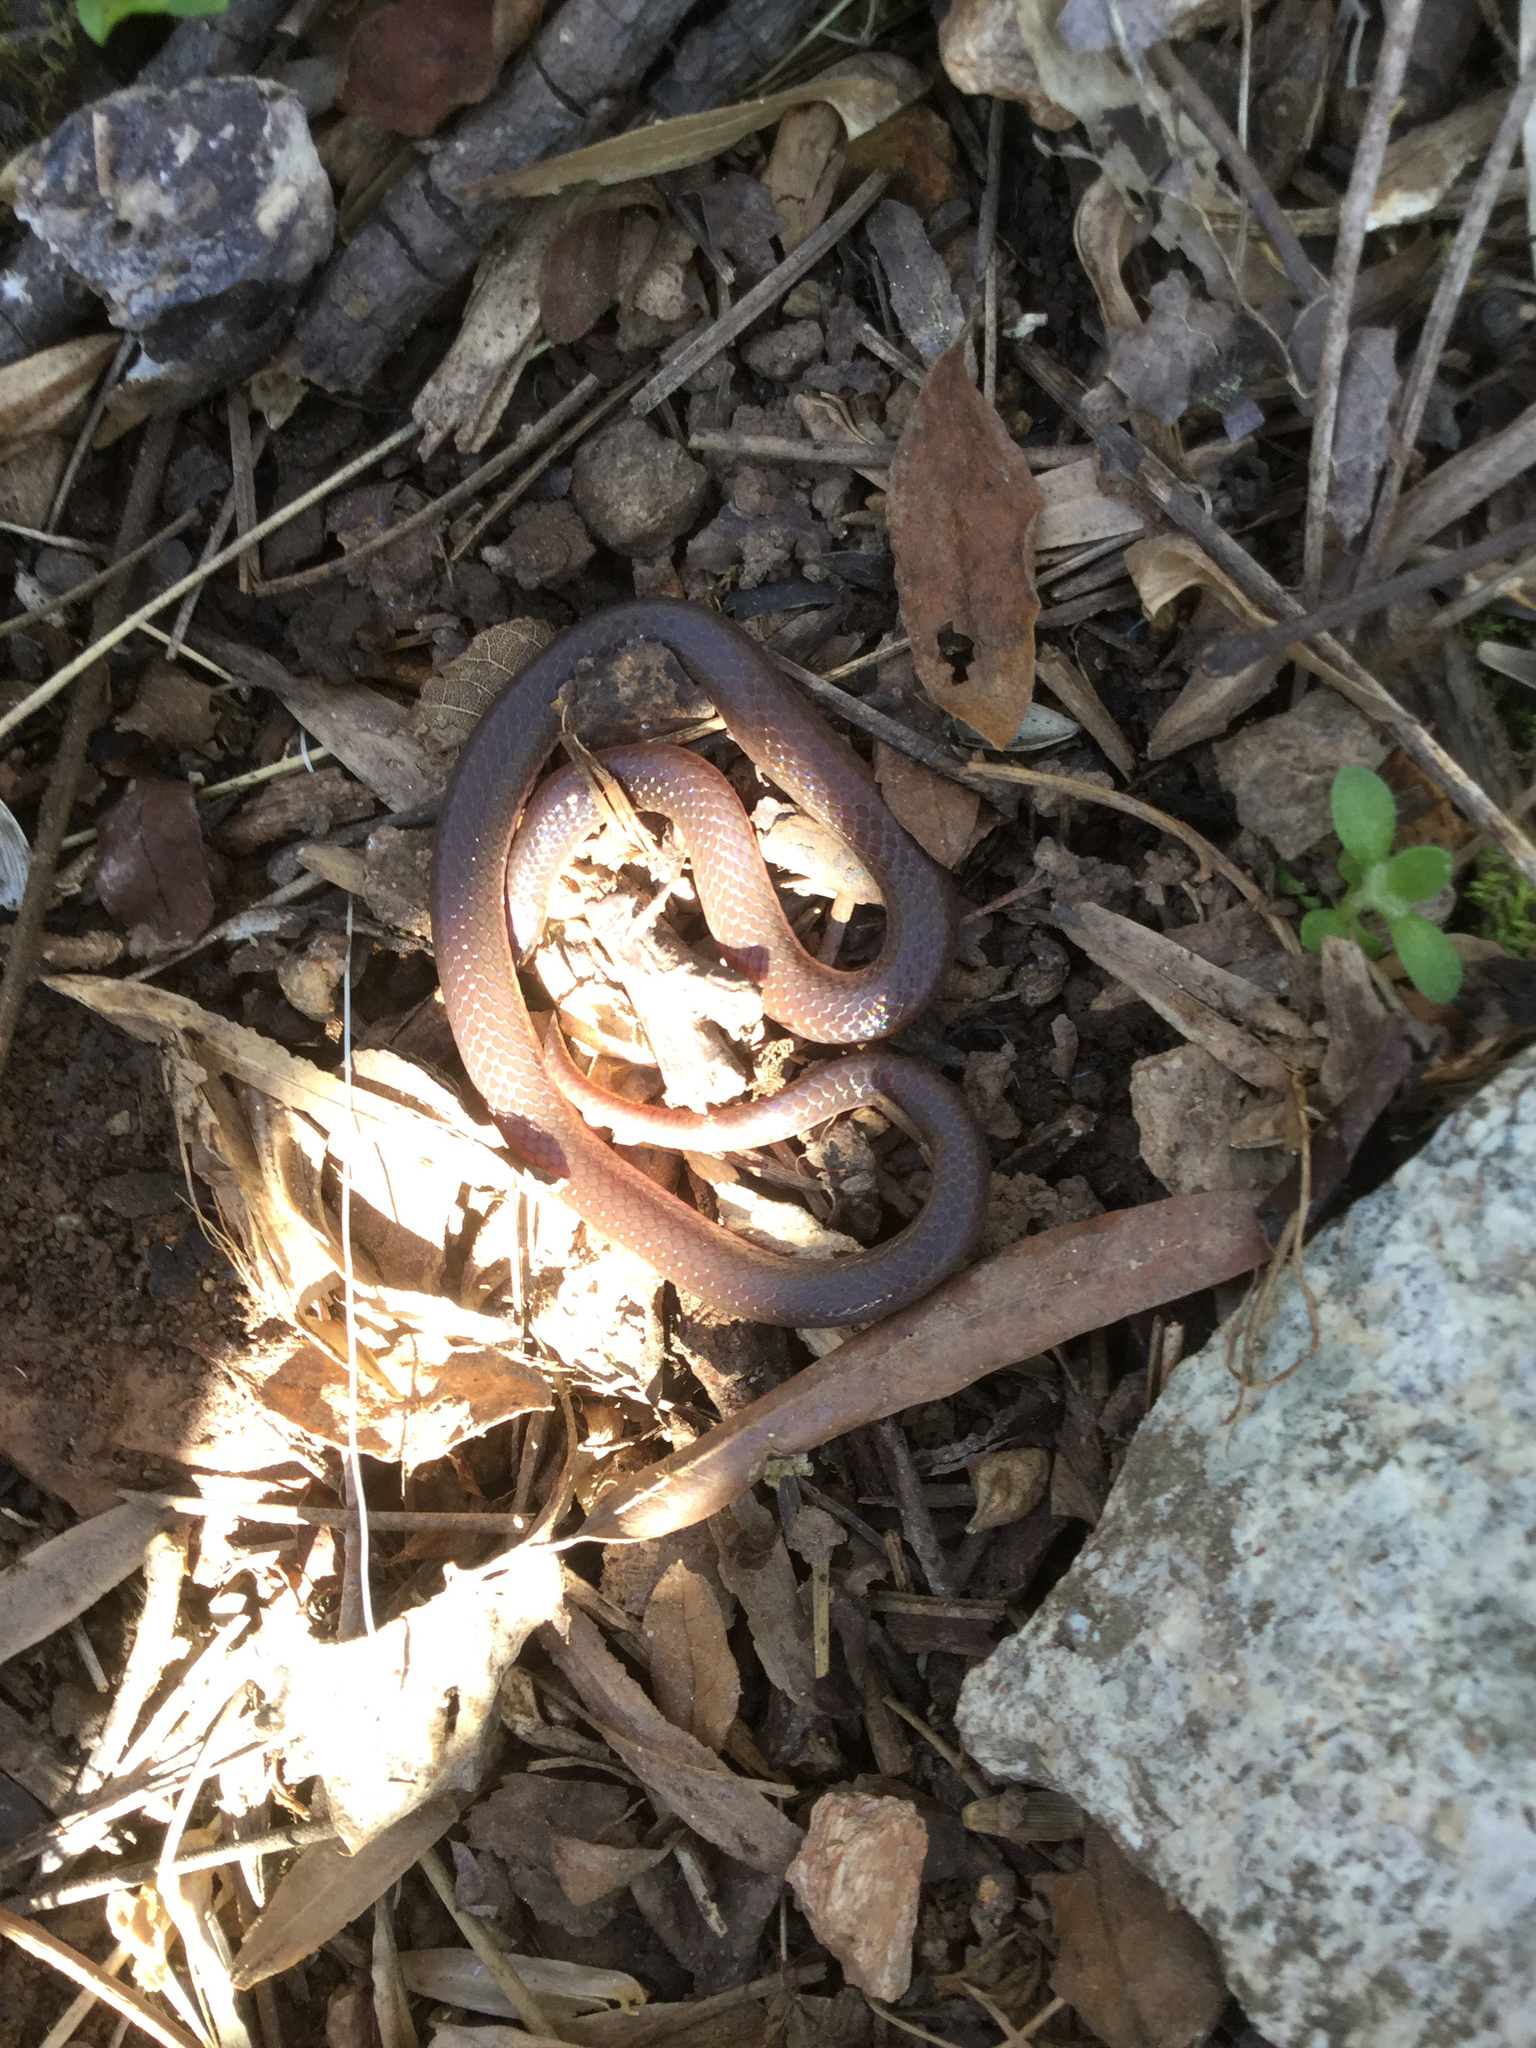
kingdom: Animalia
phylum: Chordata
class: Squamata
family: Colubridae
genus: Carphophis
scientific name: Carphophis amoenus
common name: Eastern worm snake
